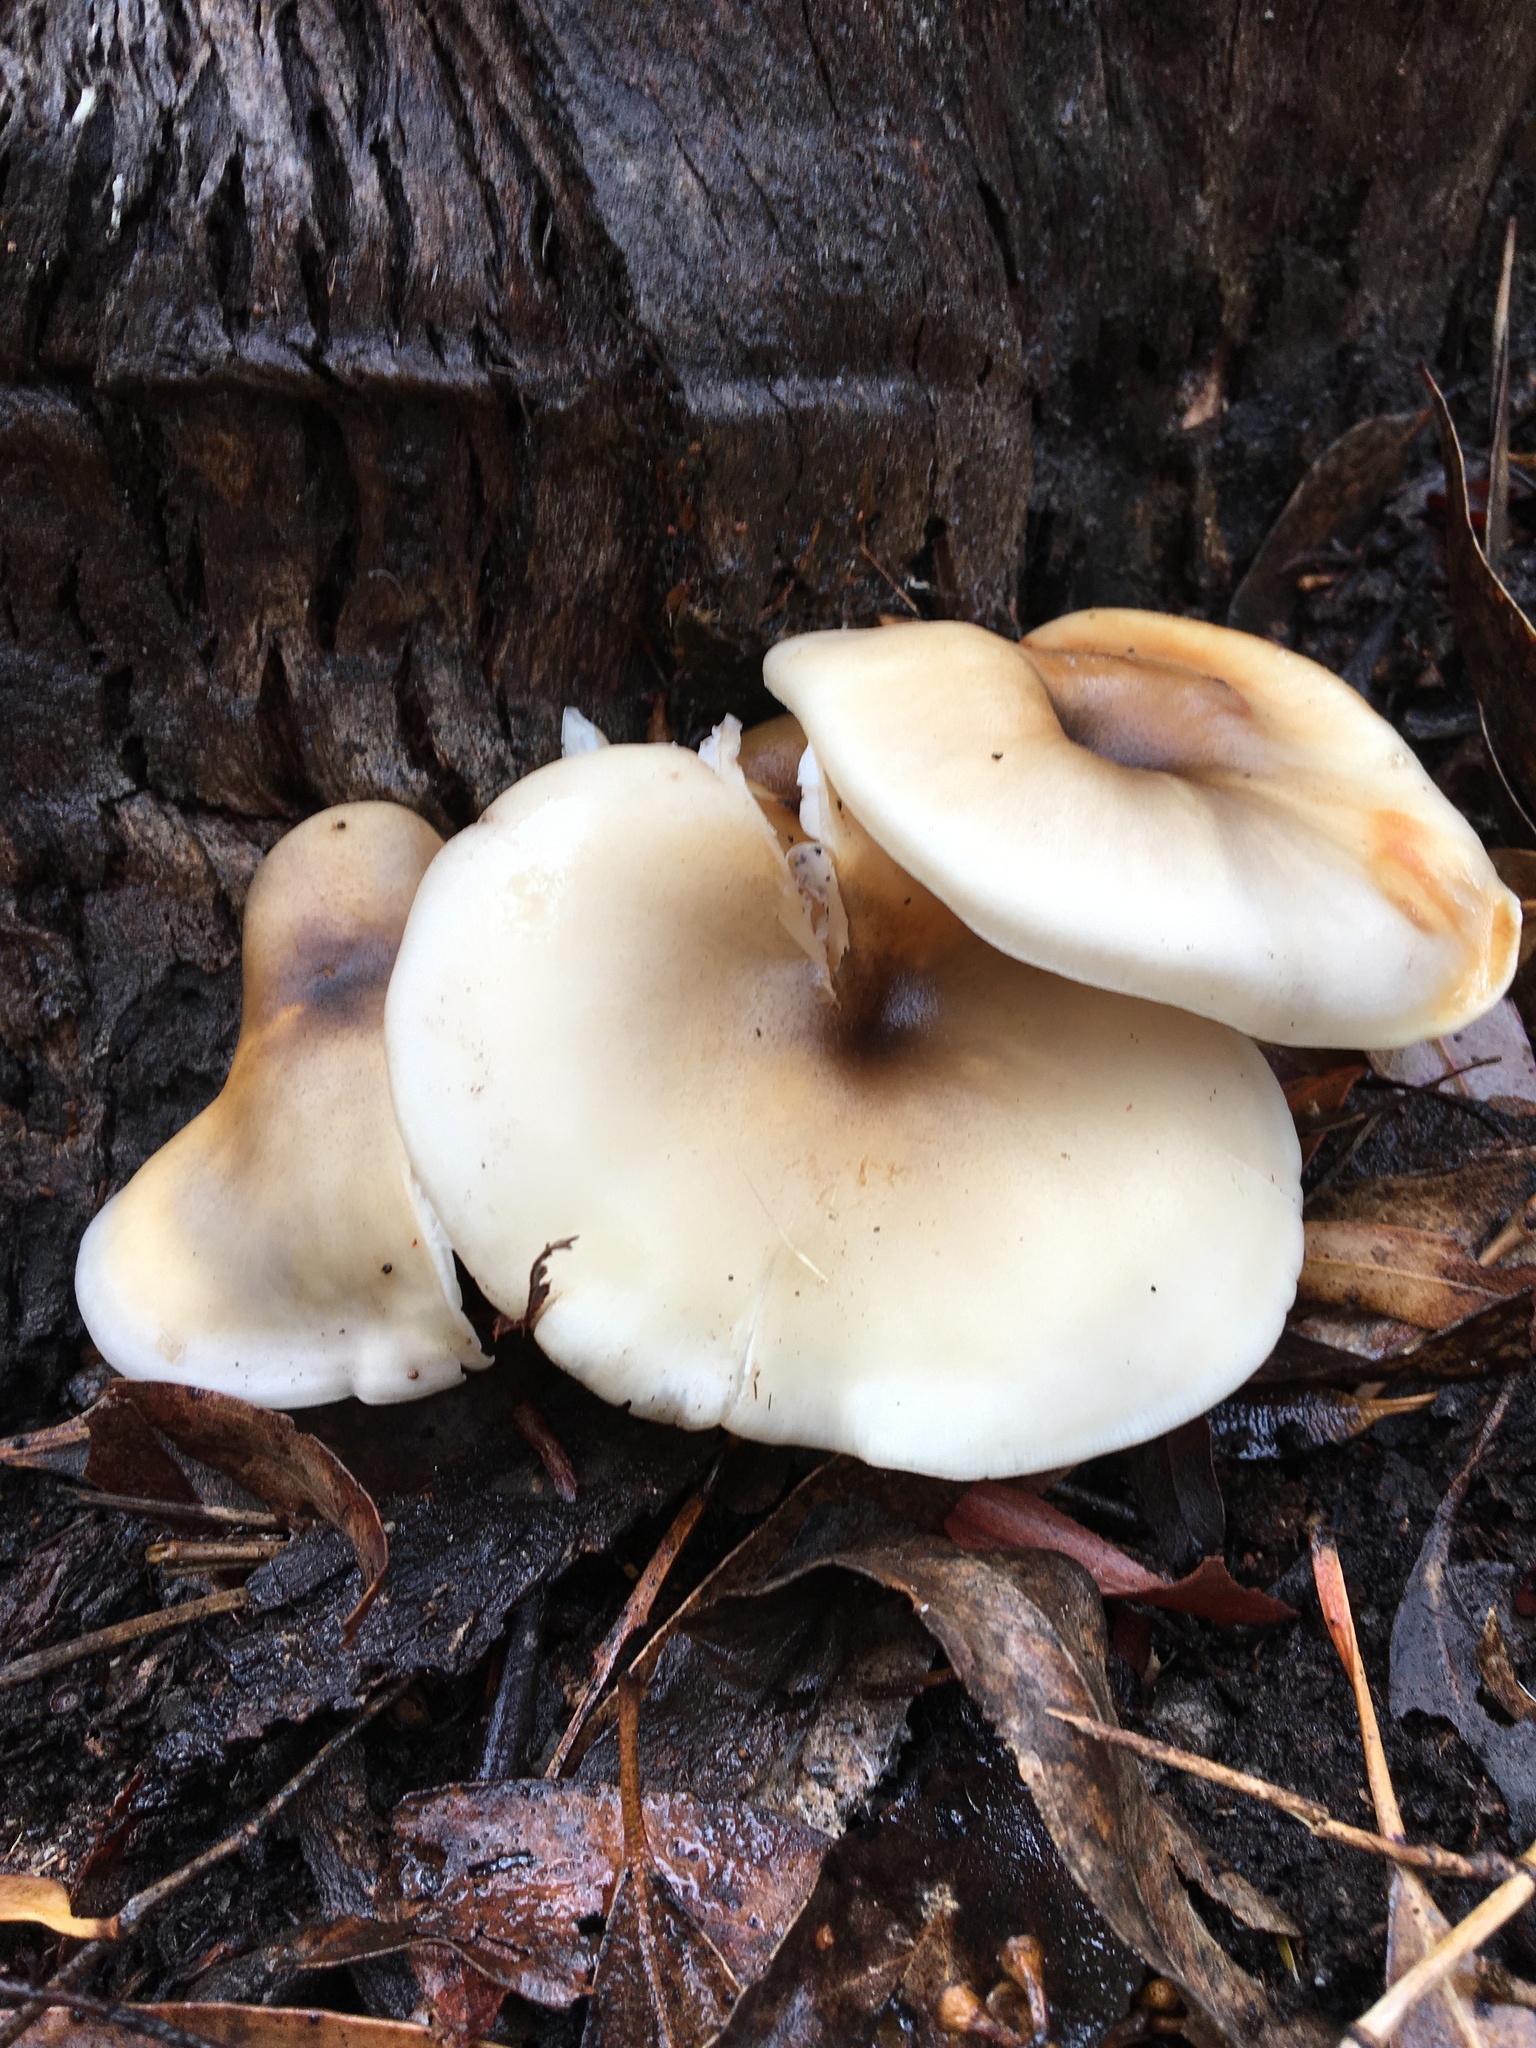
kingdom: Fungi
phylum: Basidiomycota
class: Agaricomycetes
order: Agaricales
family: Omphalotaceae
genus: Omphalotus
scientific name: Omphalotus nidiformis
